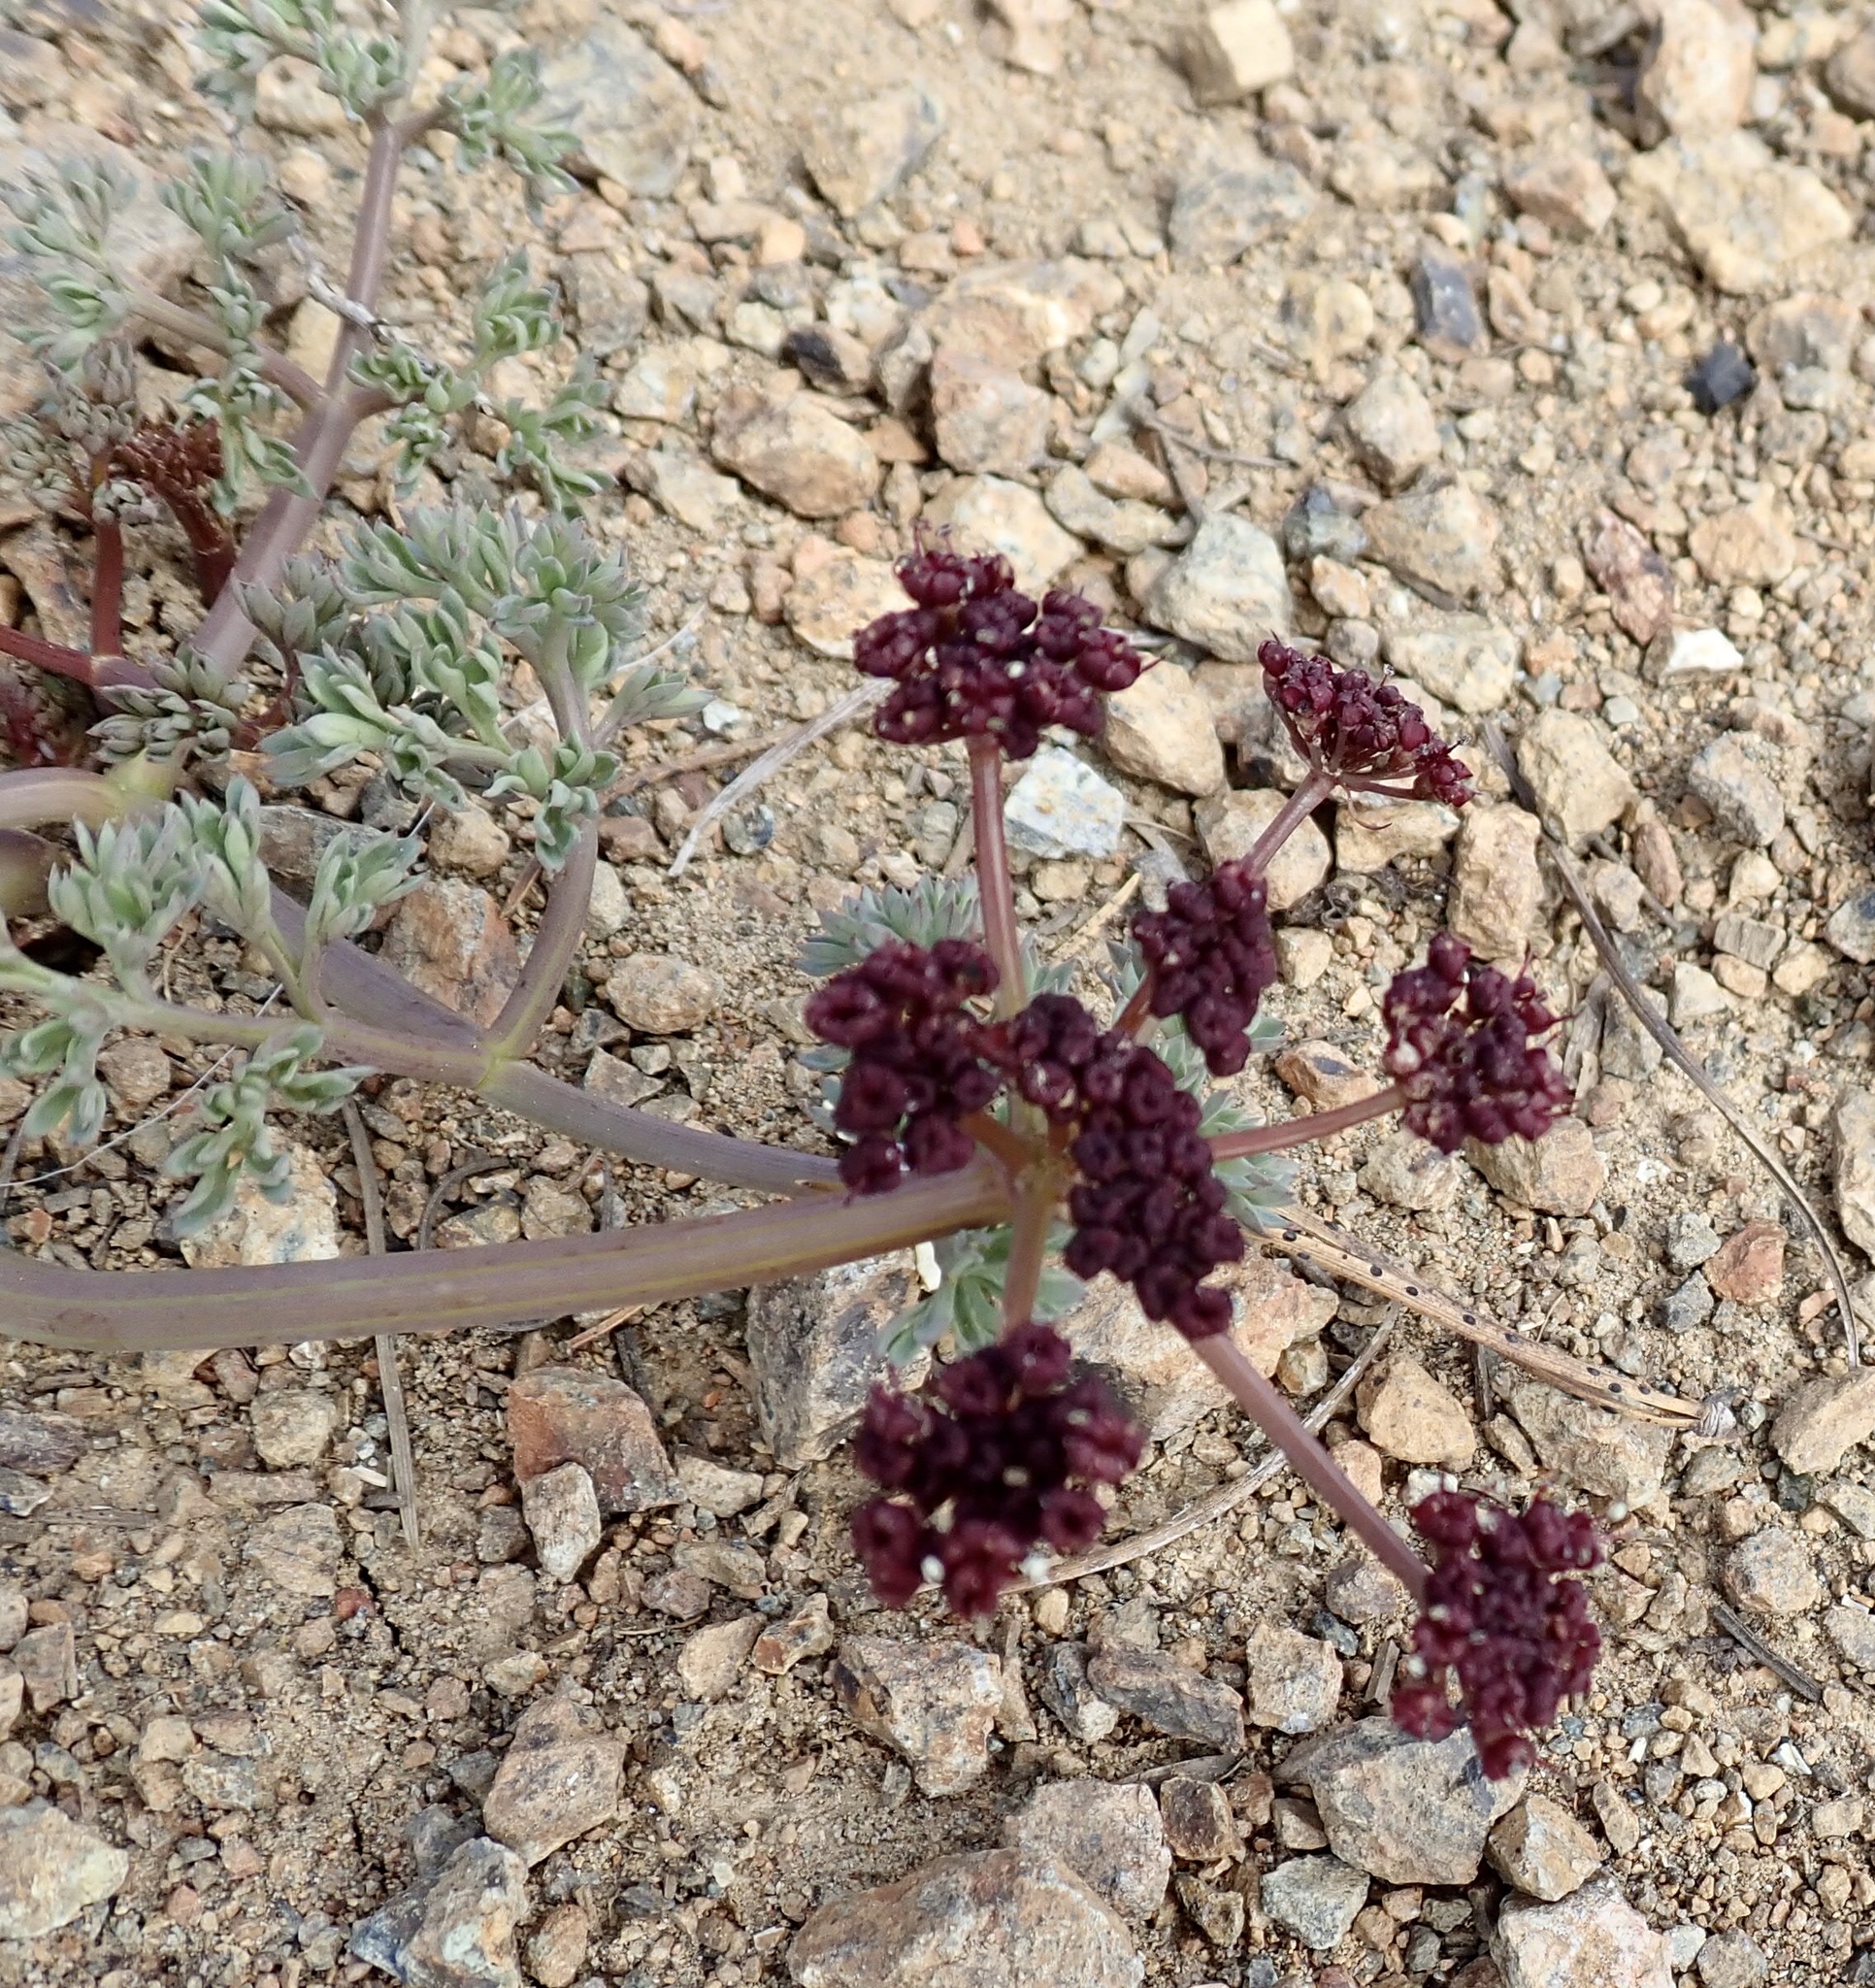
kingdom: Plantae
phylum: Tracheophyta
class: Magnoliopsida
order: Apiales
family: Apiaceae
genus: Lomatium
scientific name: Lomatium cuspidatum
